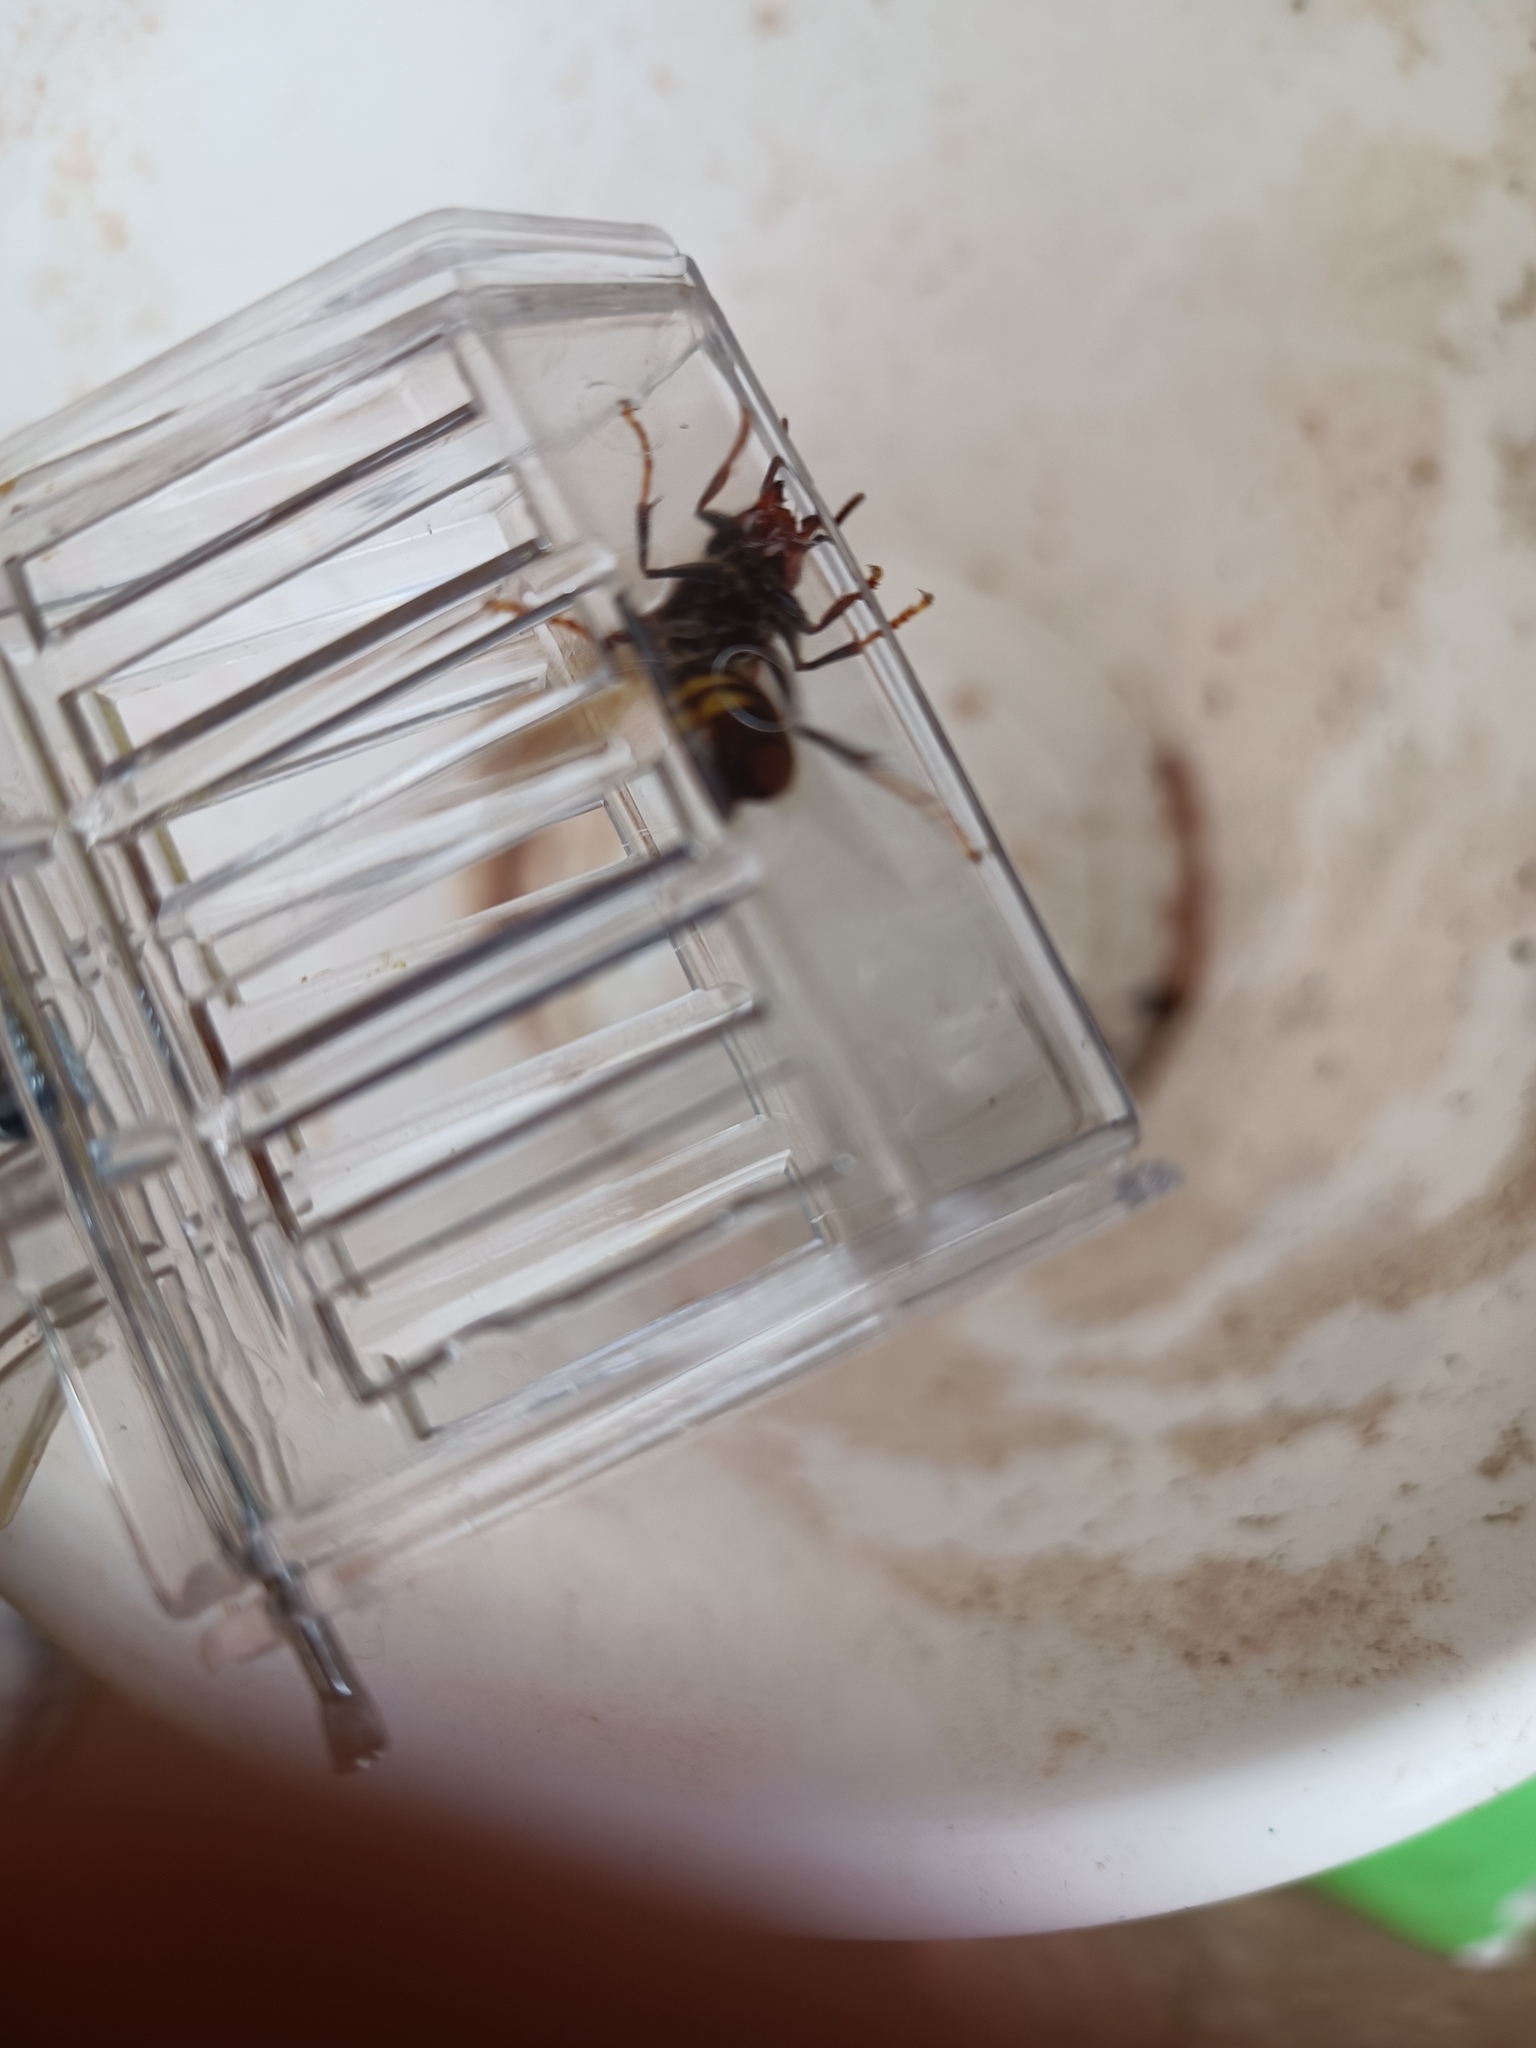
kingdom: Animalia
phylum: Arthropoda
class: Insecta
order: Hymenoptera
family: Vespidae
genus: Vespa
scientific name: Vespa velutina
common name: Asian hornet
